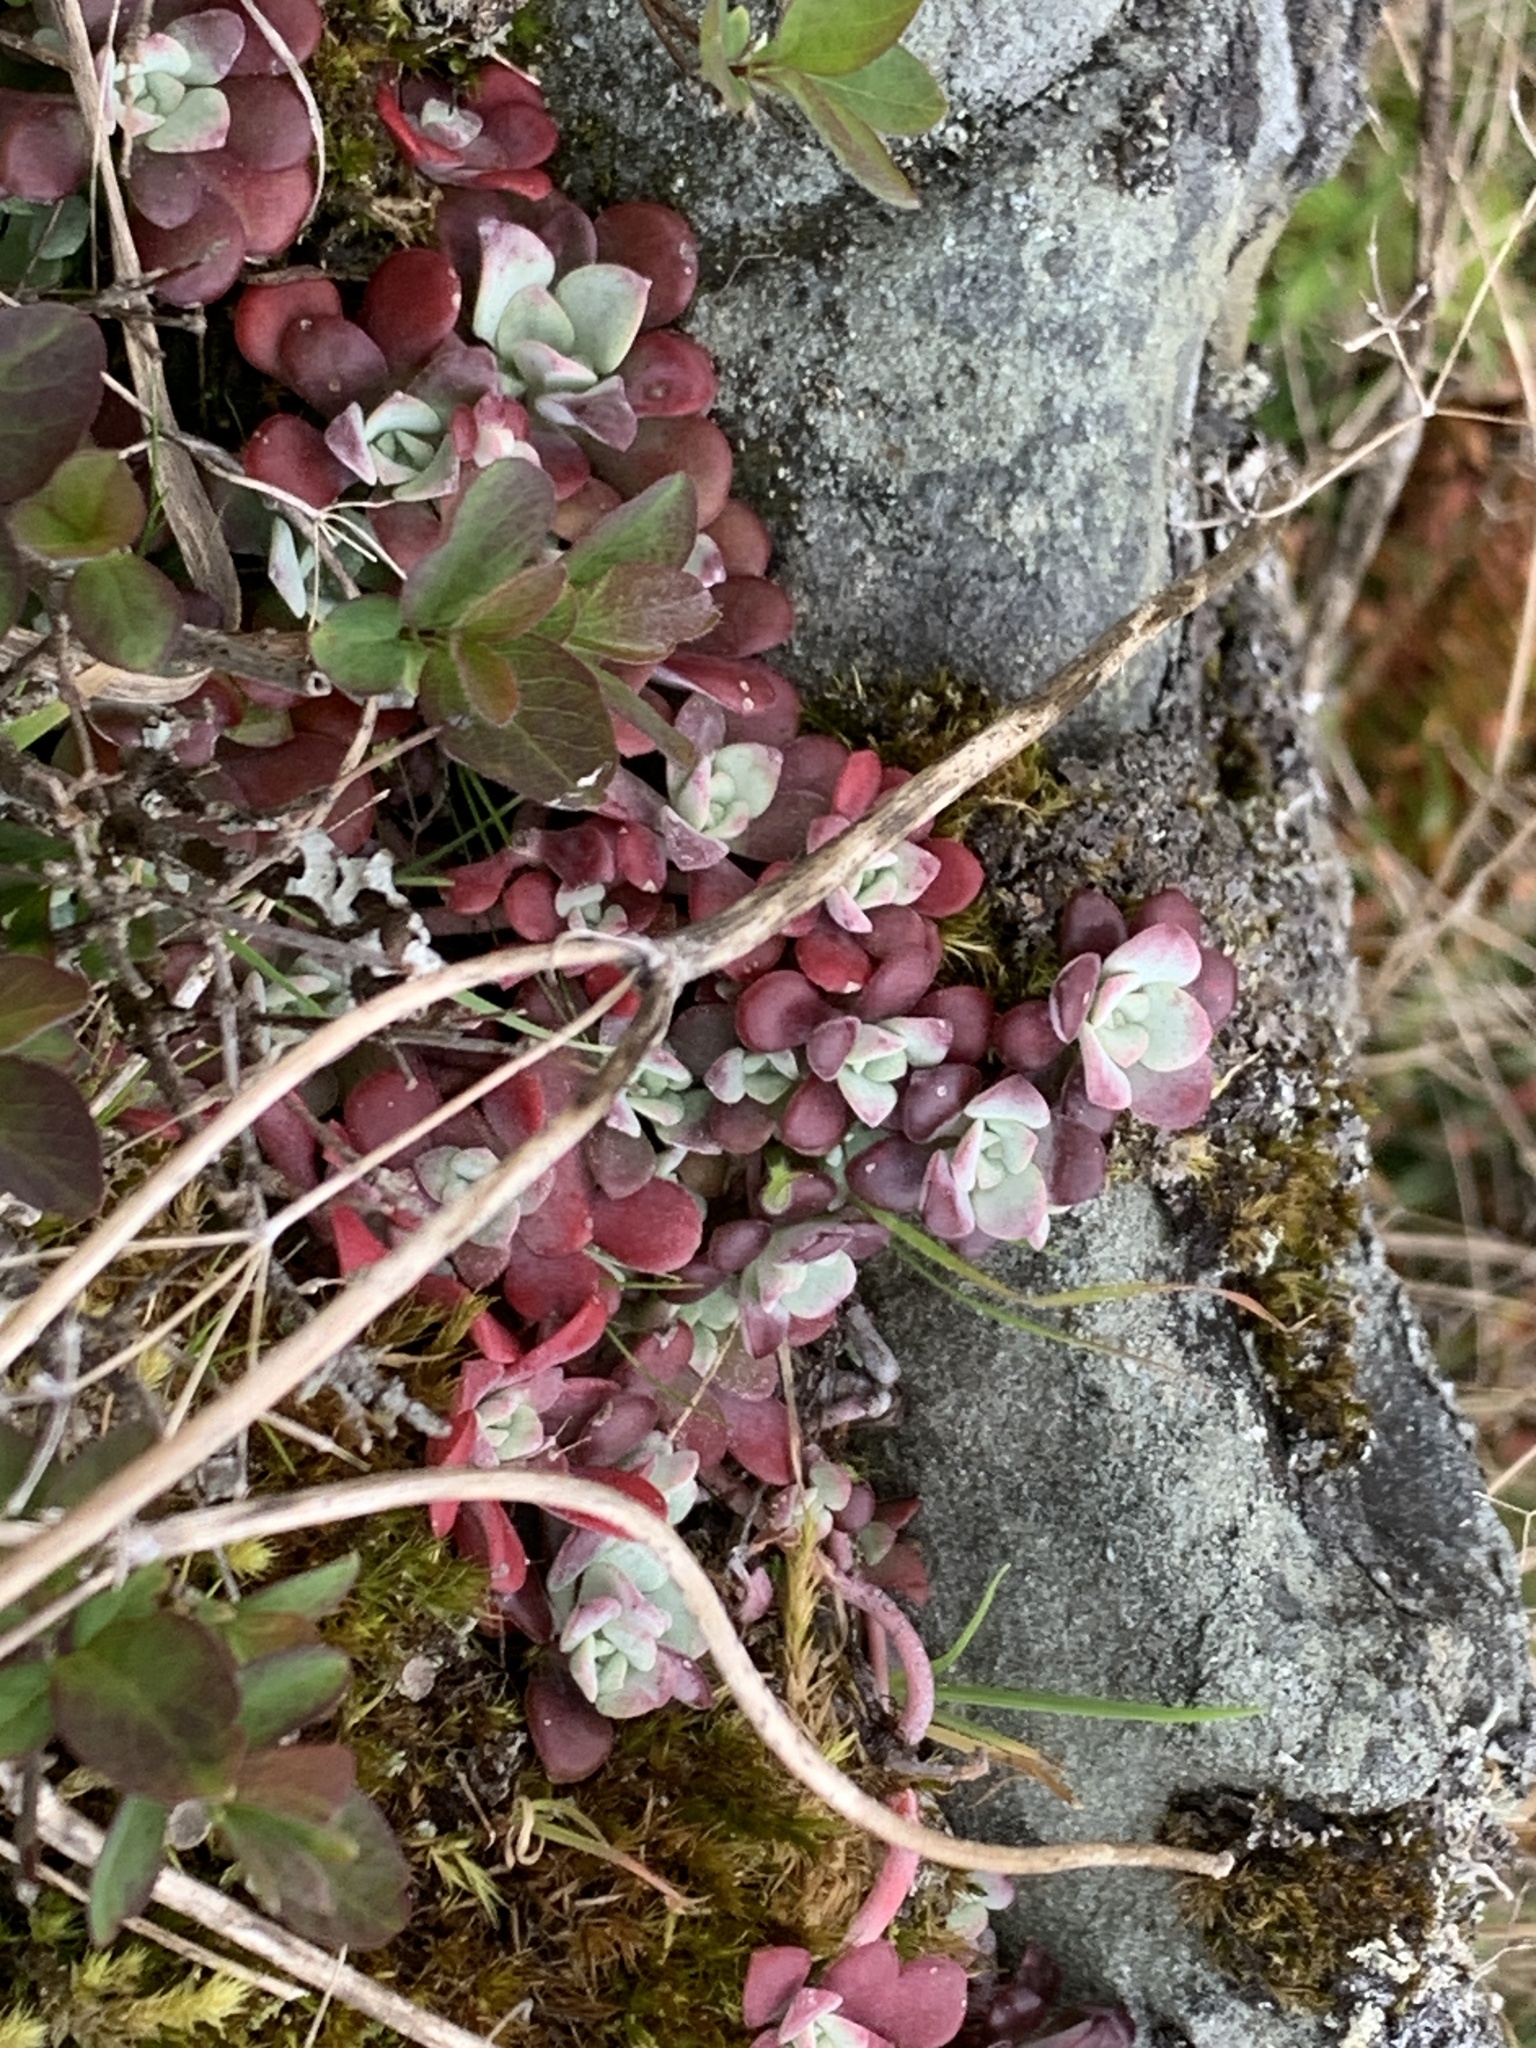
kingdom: Plantae
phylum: Tracheophyta
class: Magnoliopsida
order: Saxifragales
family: Crassulaceae
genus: Sedum
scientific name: Sedum spathulifolium
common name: Colorado stonecrop
